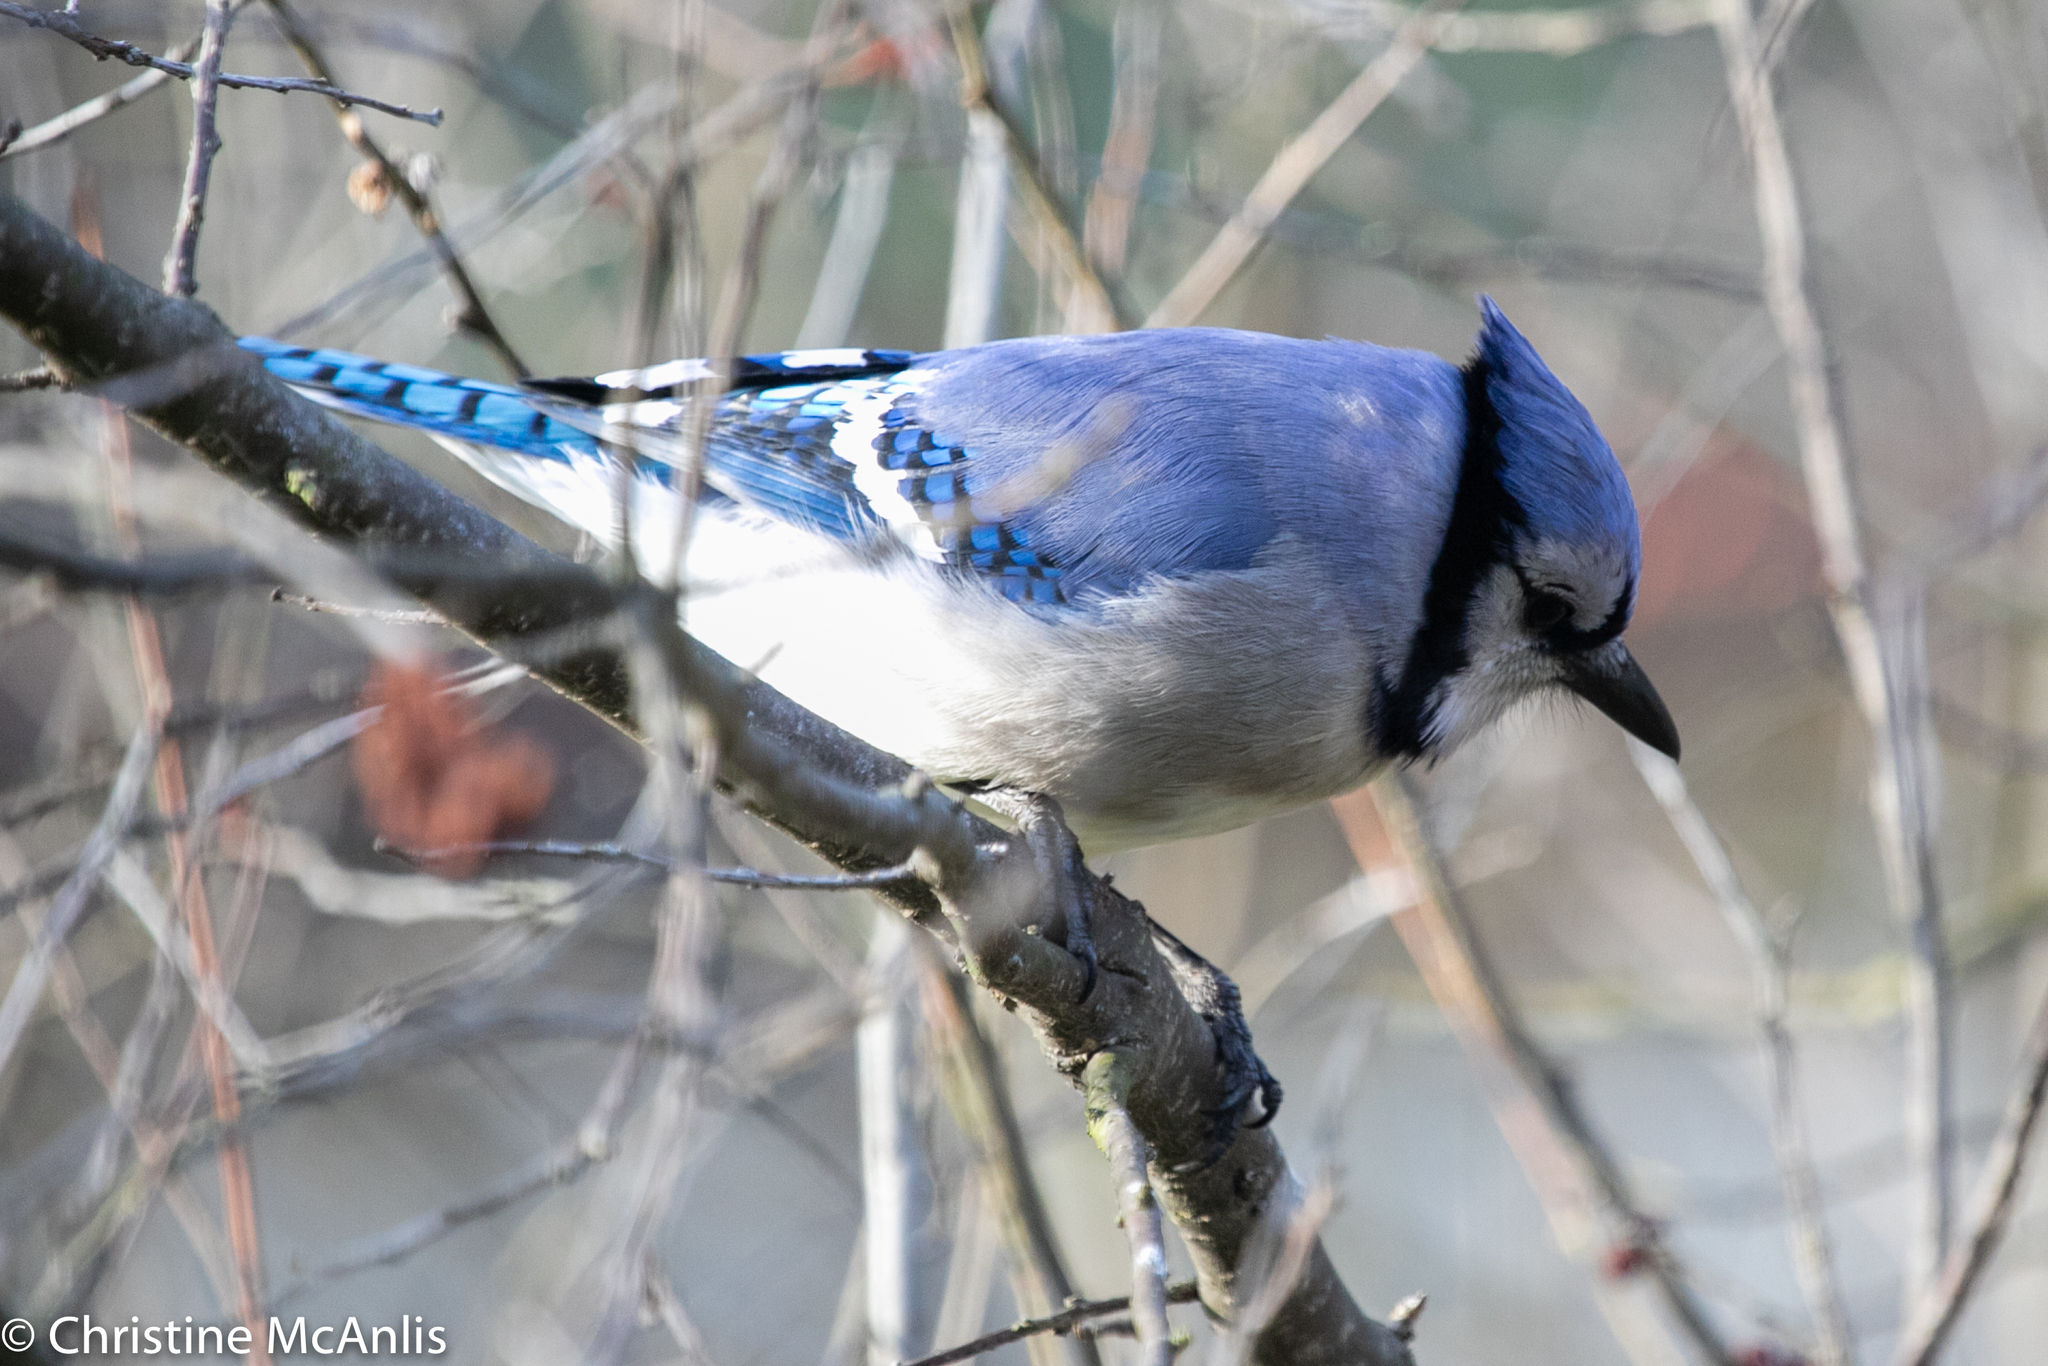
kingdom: Animalia
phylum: Chordata
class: Aves
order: Passeriformes
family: Corvidae
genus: Cyanocitta
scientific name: Cyanocitta cristata
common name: Blue jay
